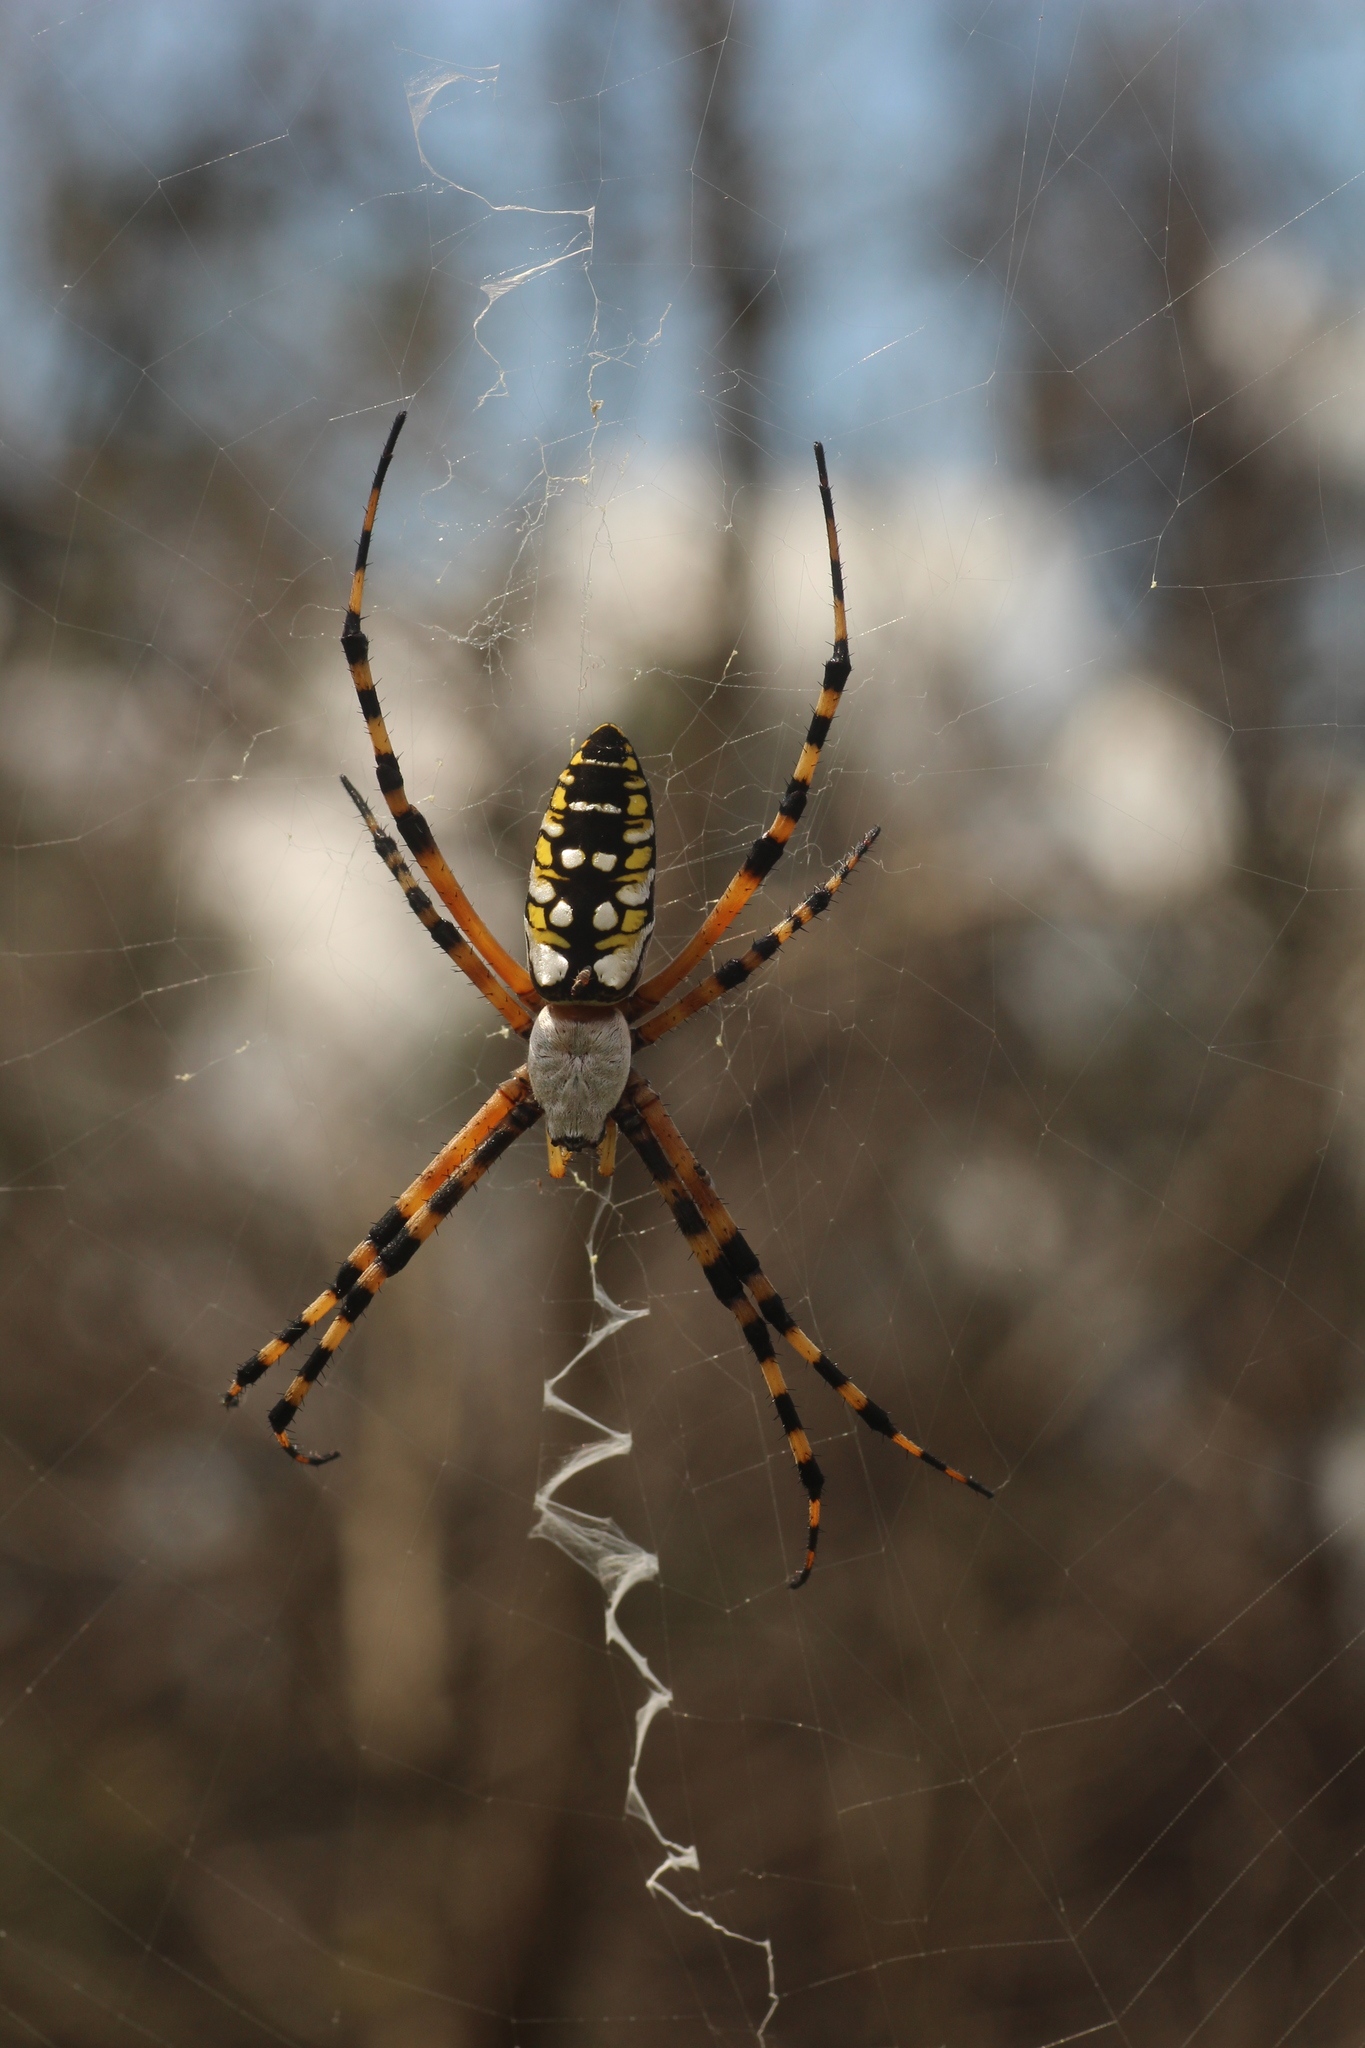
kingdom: Animalia
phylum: Arthropoda
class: Arachnida
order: Araneae
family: Araneidae
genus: Argiope
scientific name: Argiope aurantia
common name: Orb weavers
